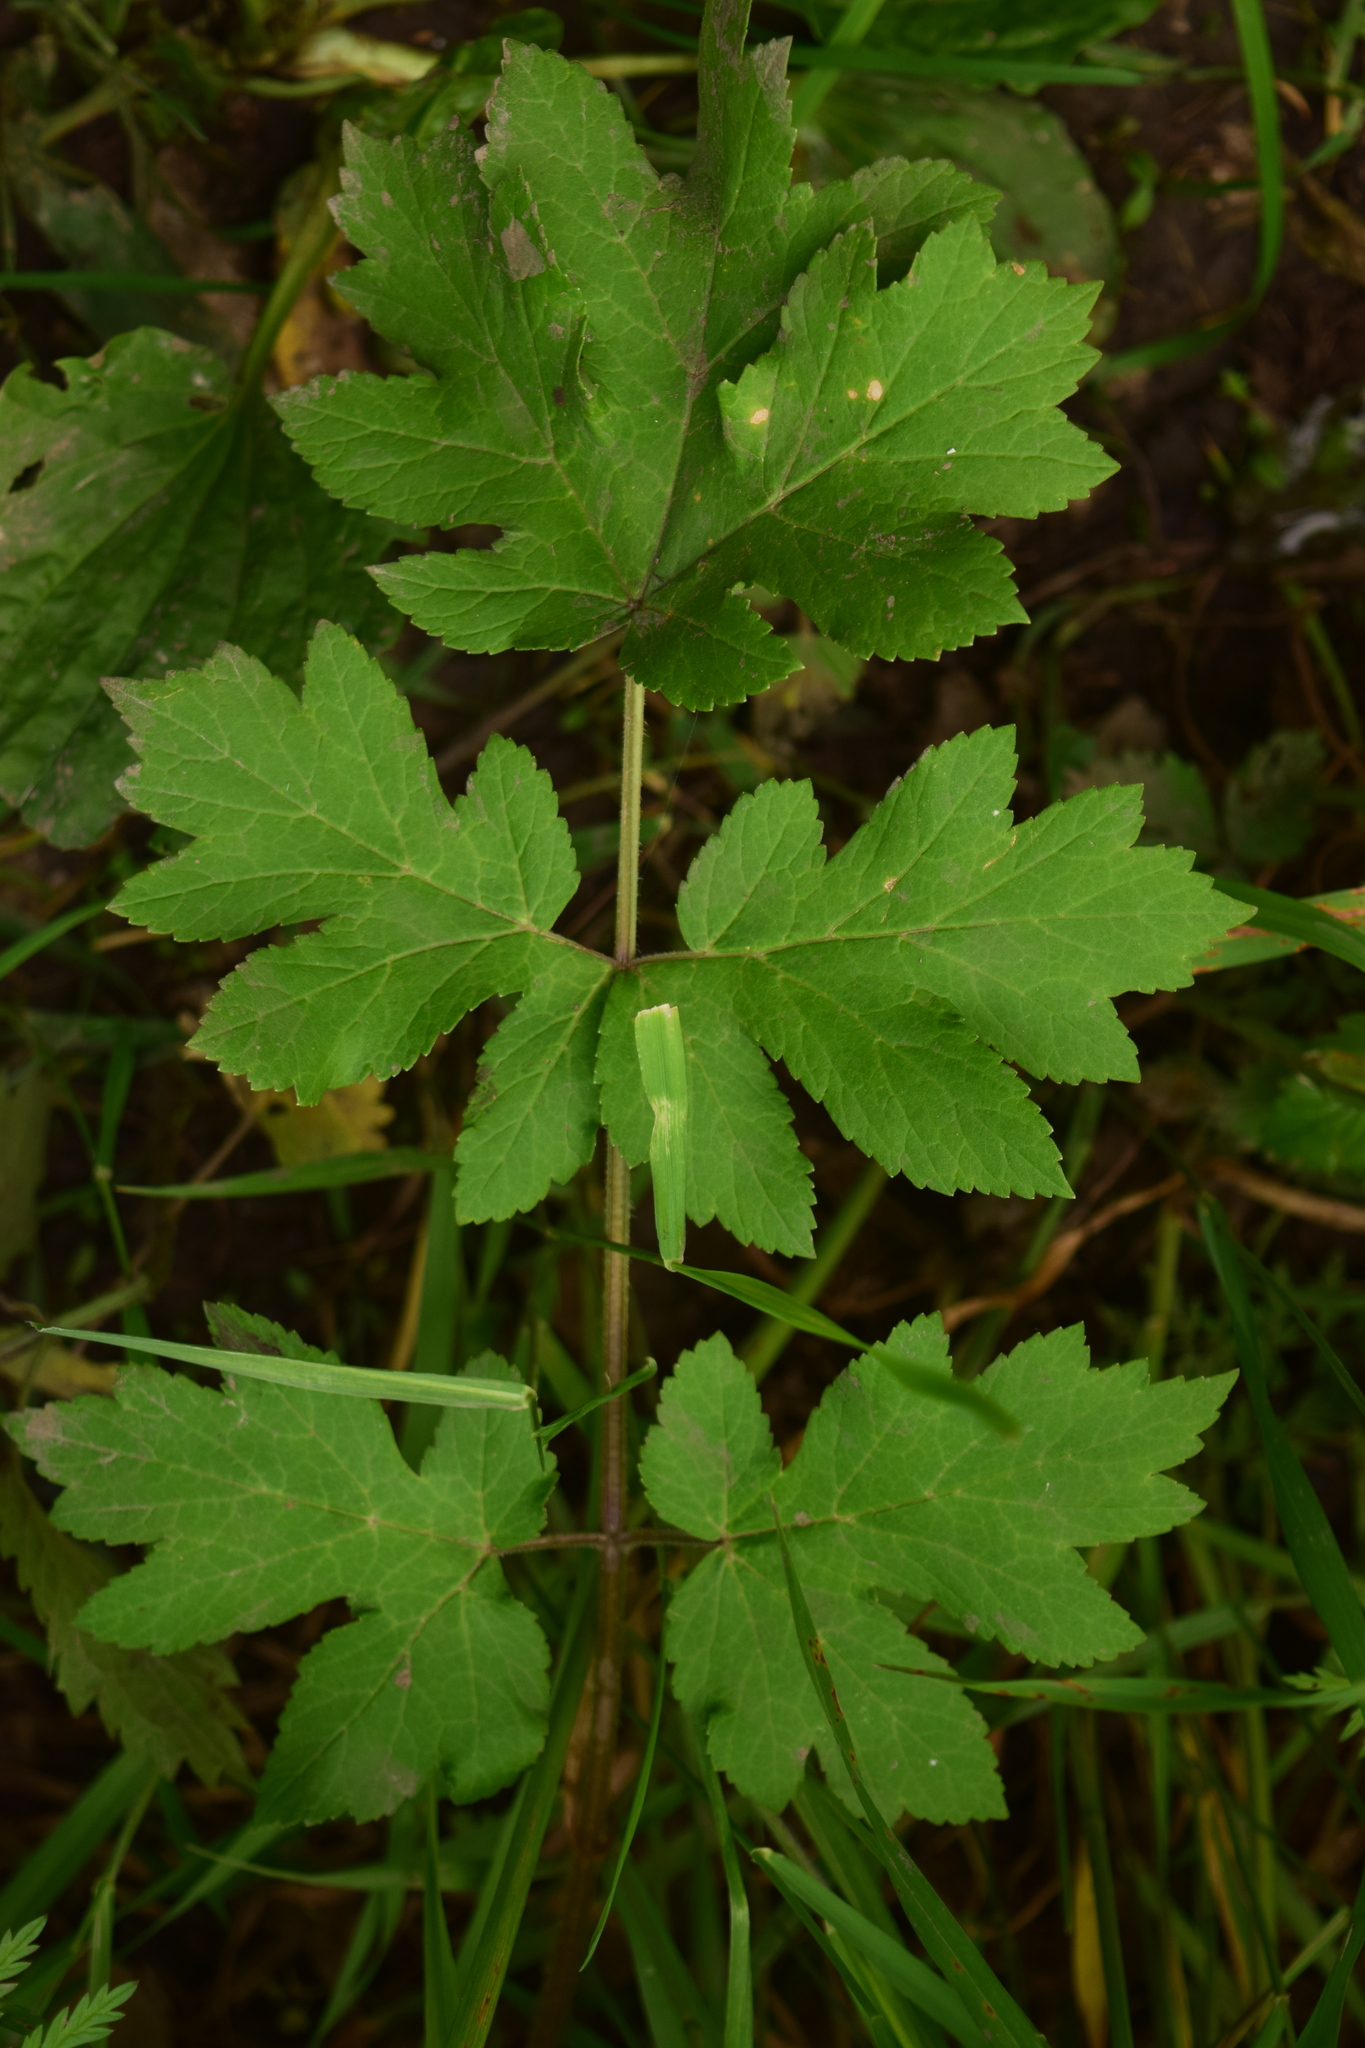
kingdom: Plantae
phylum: Tracheophyta
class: Magnoliopsida
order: Apiales
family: Apiaceae
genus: Heracleum
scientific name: Heracleum sphondylium
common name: Hogweed
